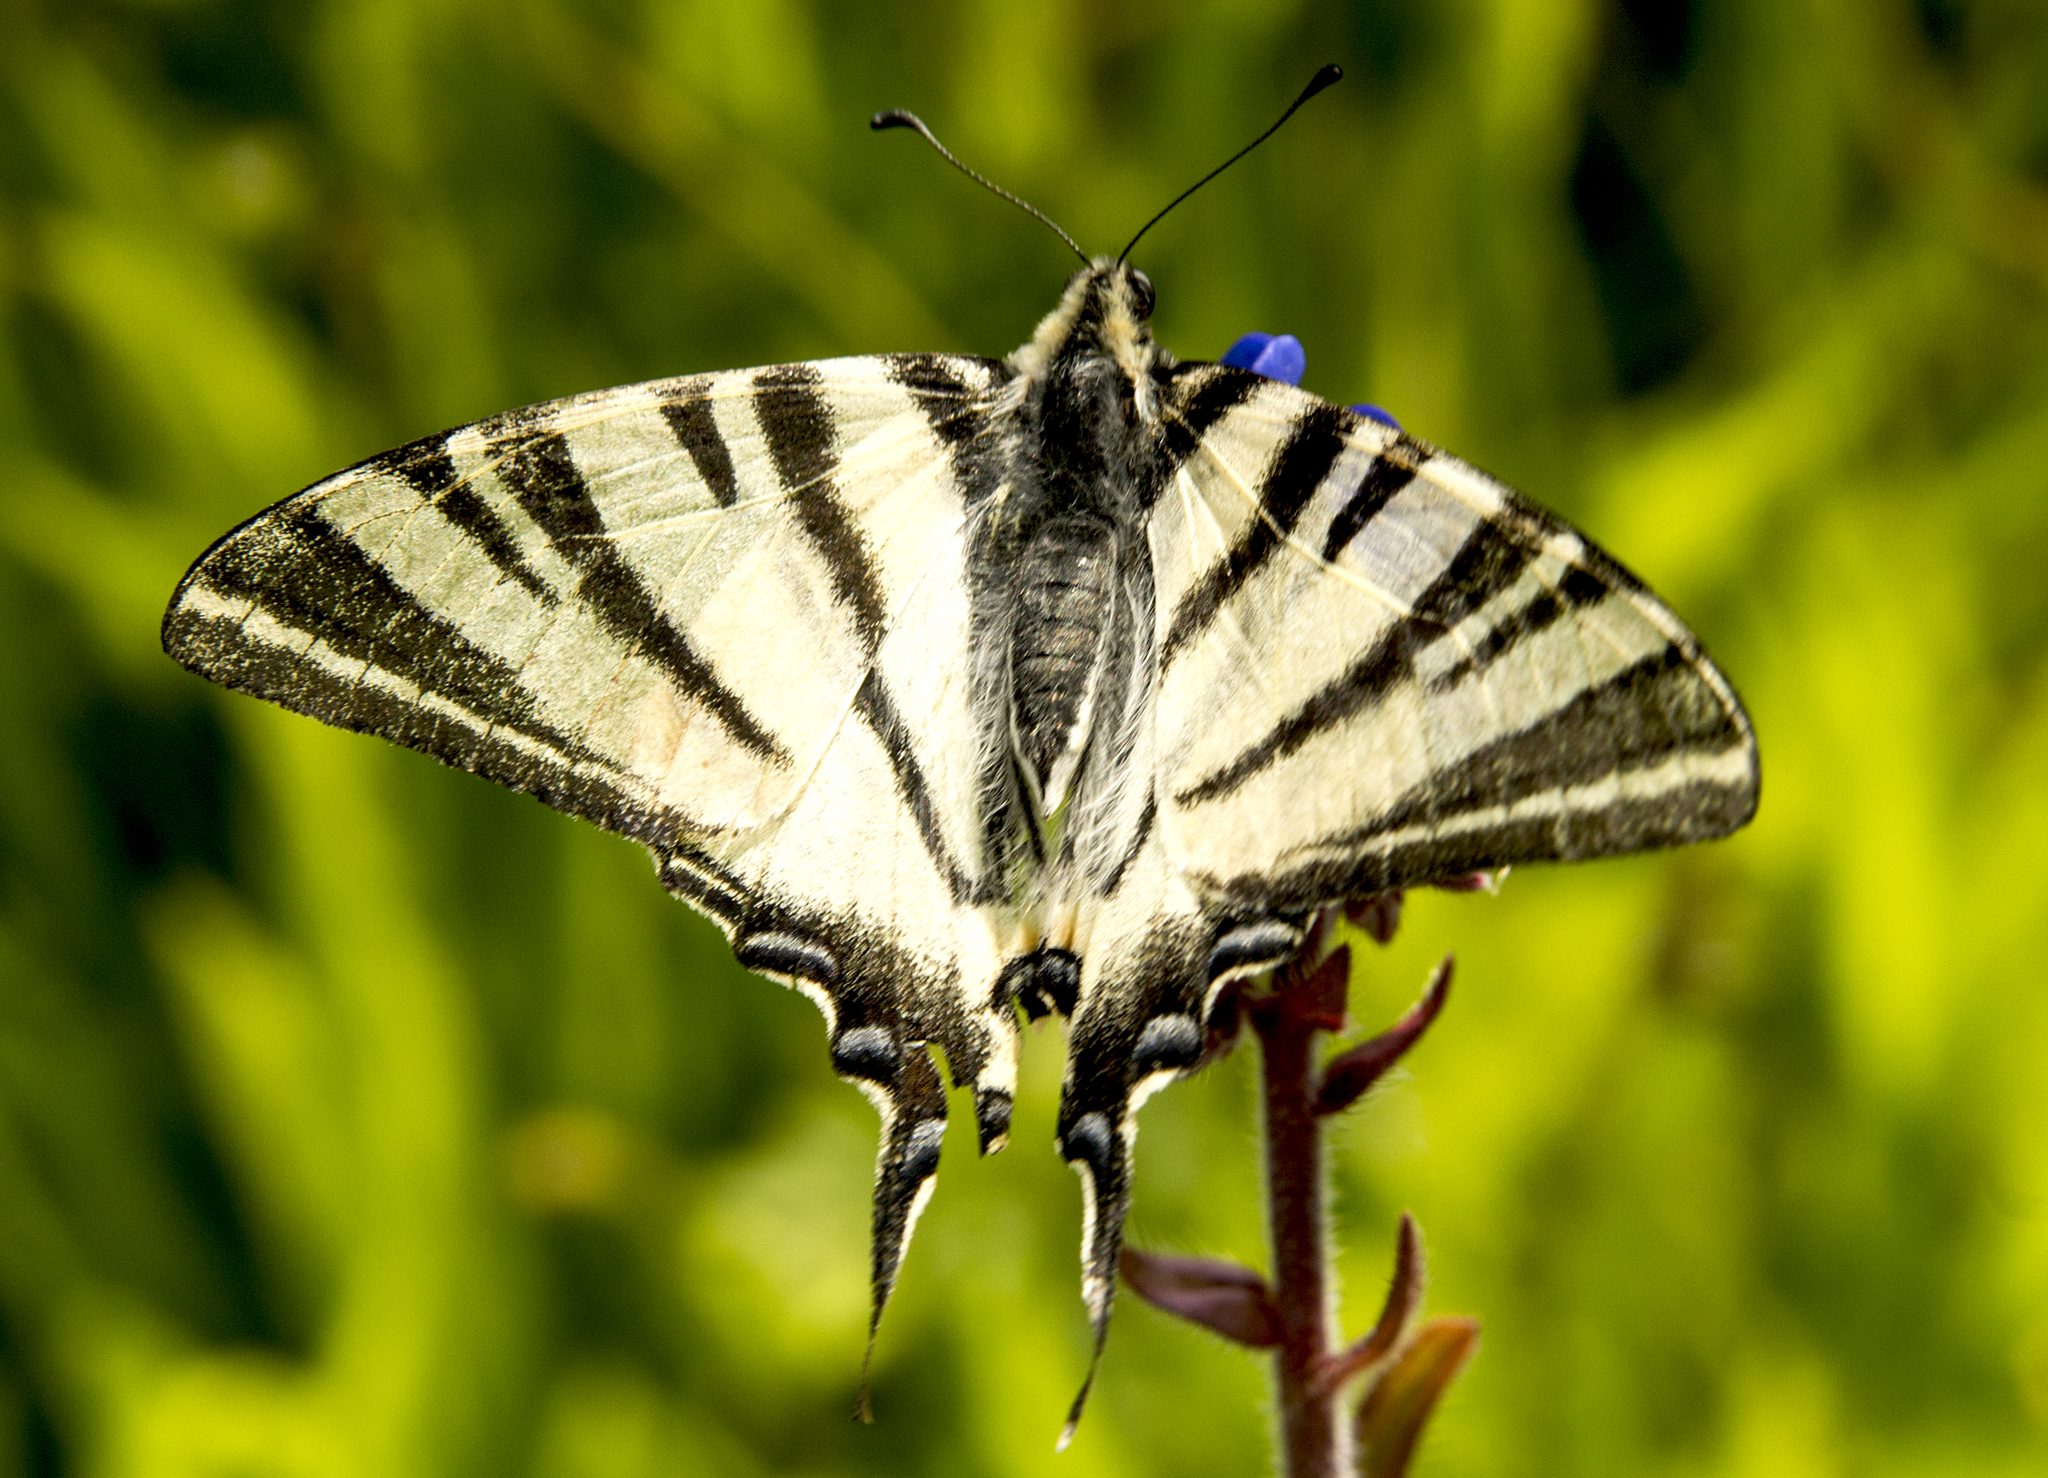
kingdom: Animalia
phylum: Arthropoda
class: Insecta
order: Lepidoptera
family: Papilionidae
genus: Iphiclides
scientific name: Iphiclides podalirius
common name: Scarce swallowtail
